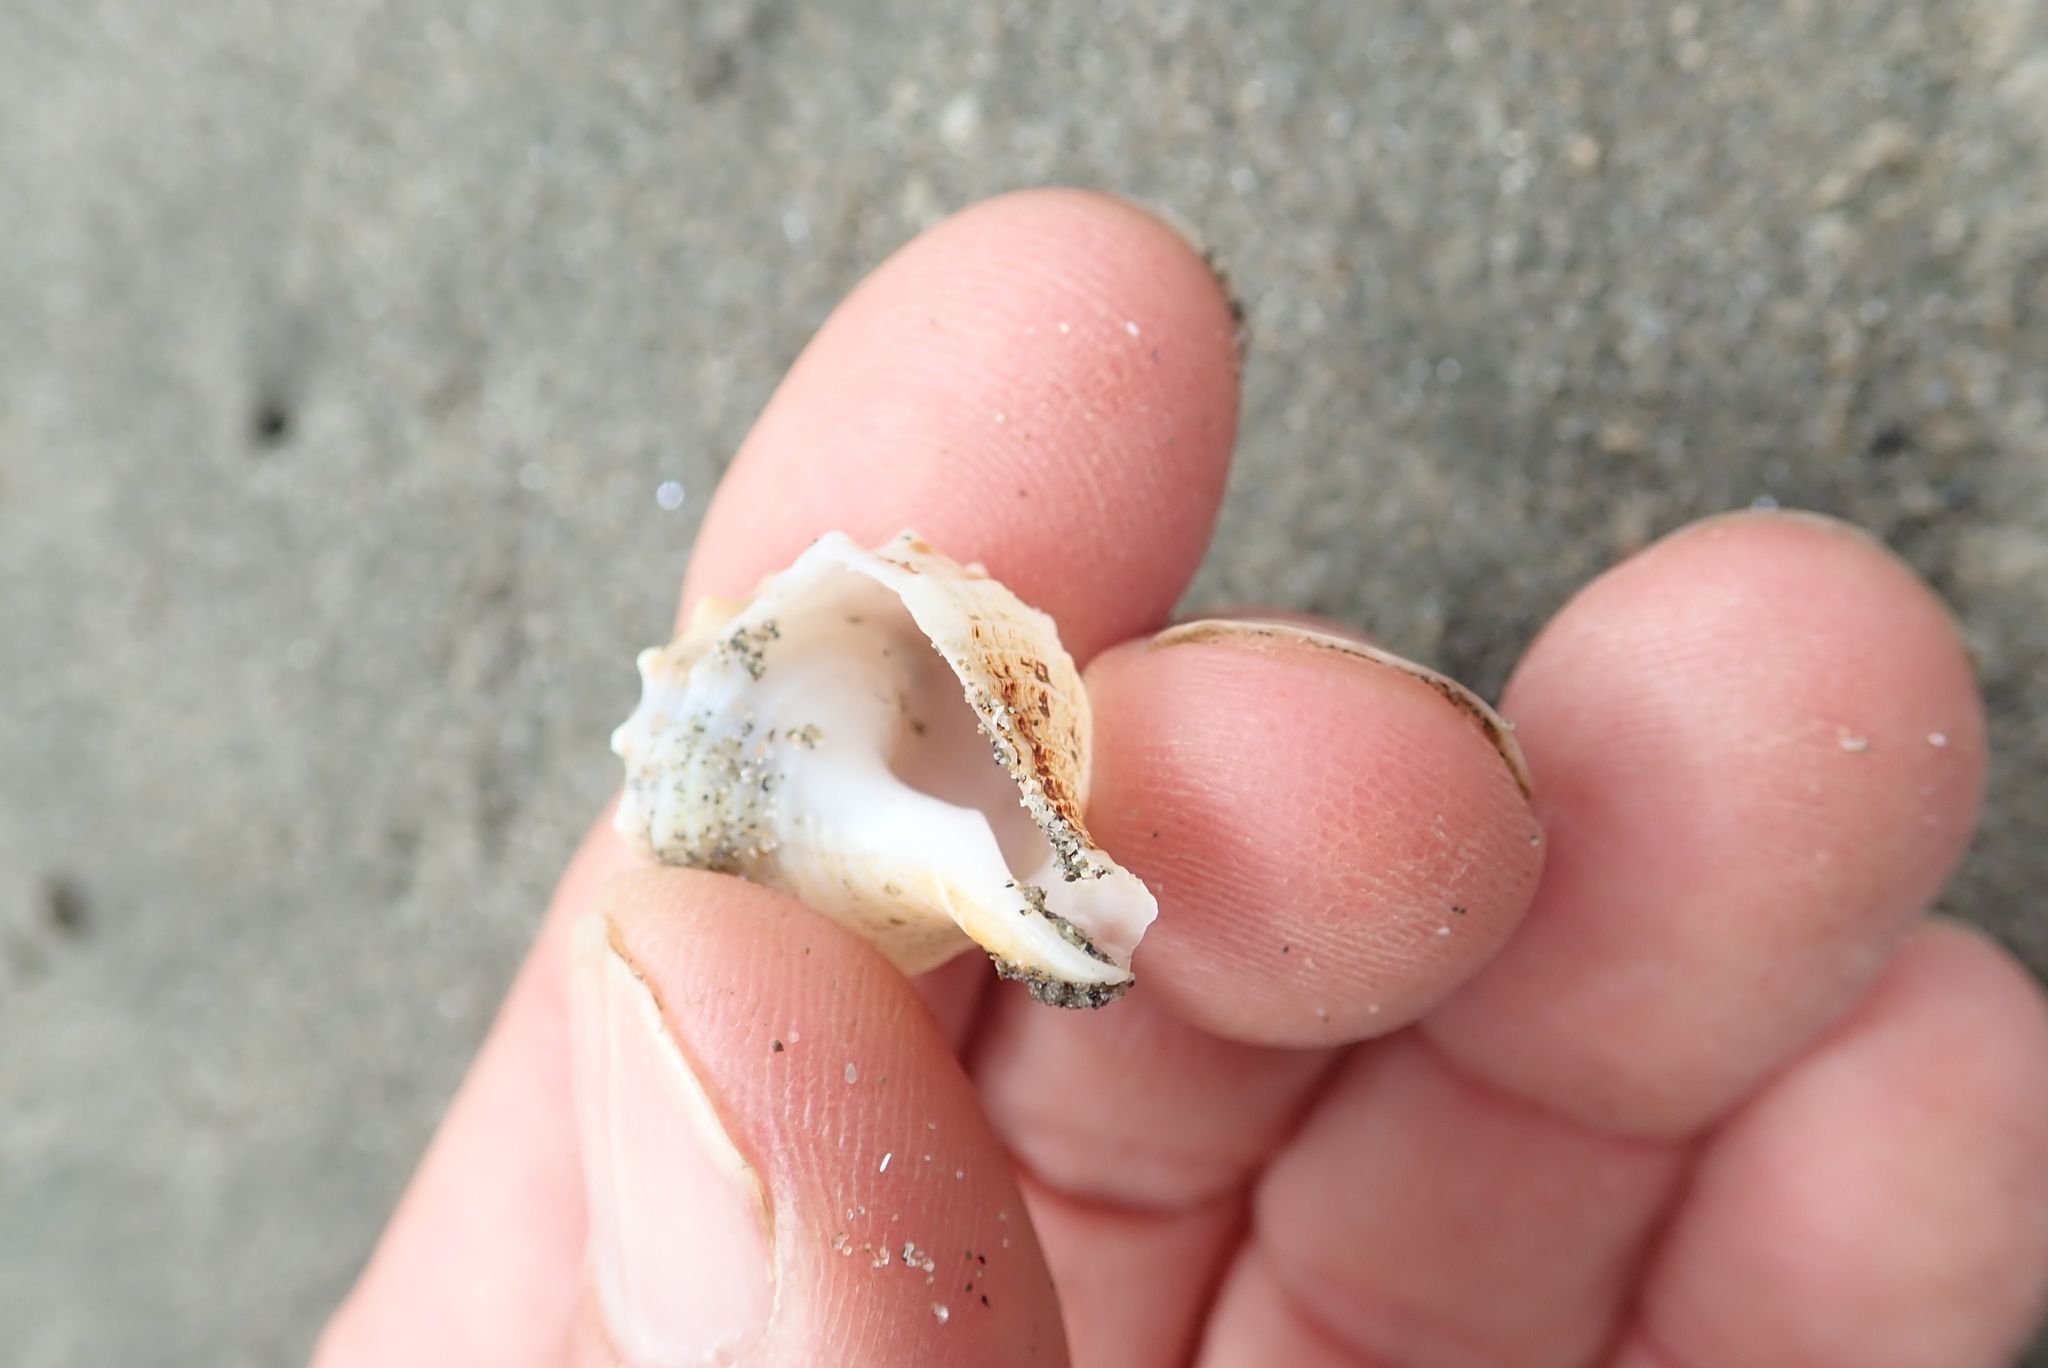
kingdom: Animalia
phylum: Mollusca
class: Gastropoda
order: Neogastropoda
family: Prosiphonidae
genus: Austrofusus
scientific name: Austrofusus glans
